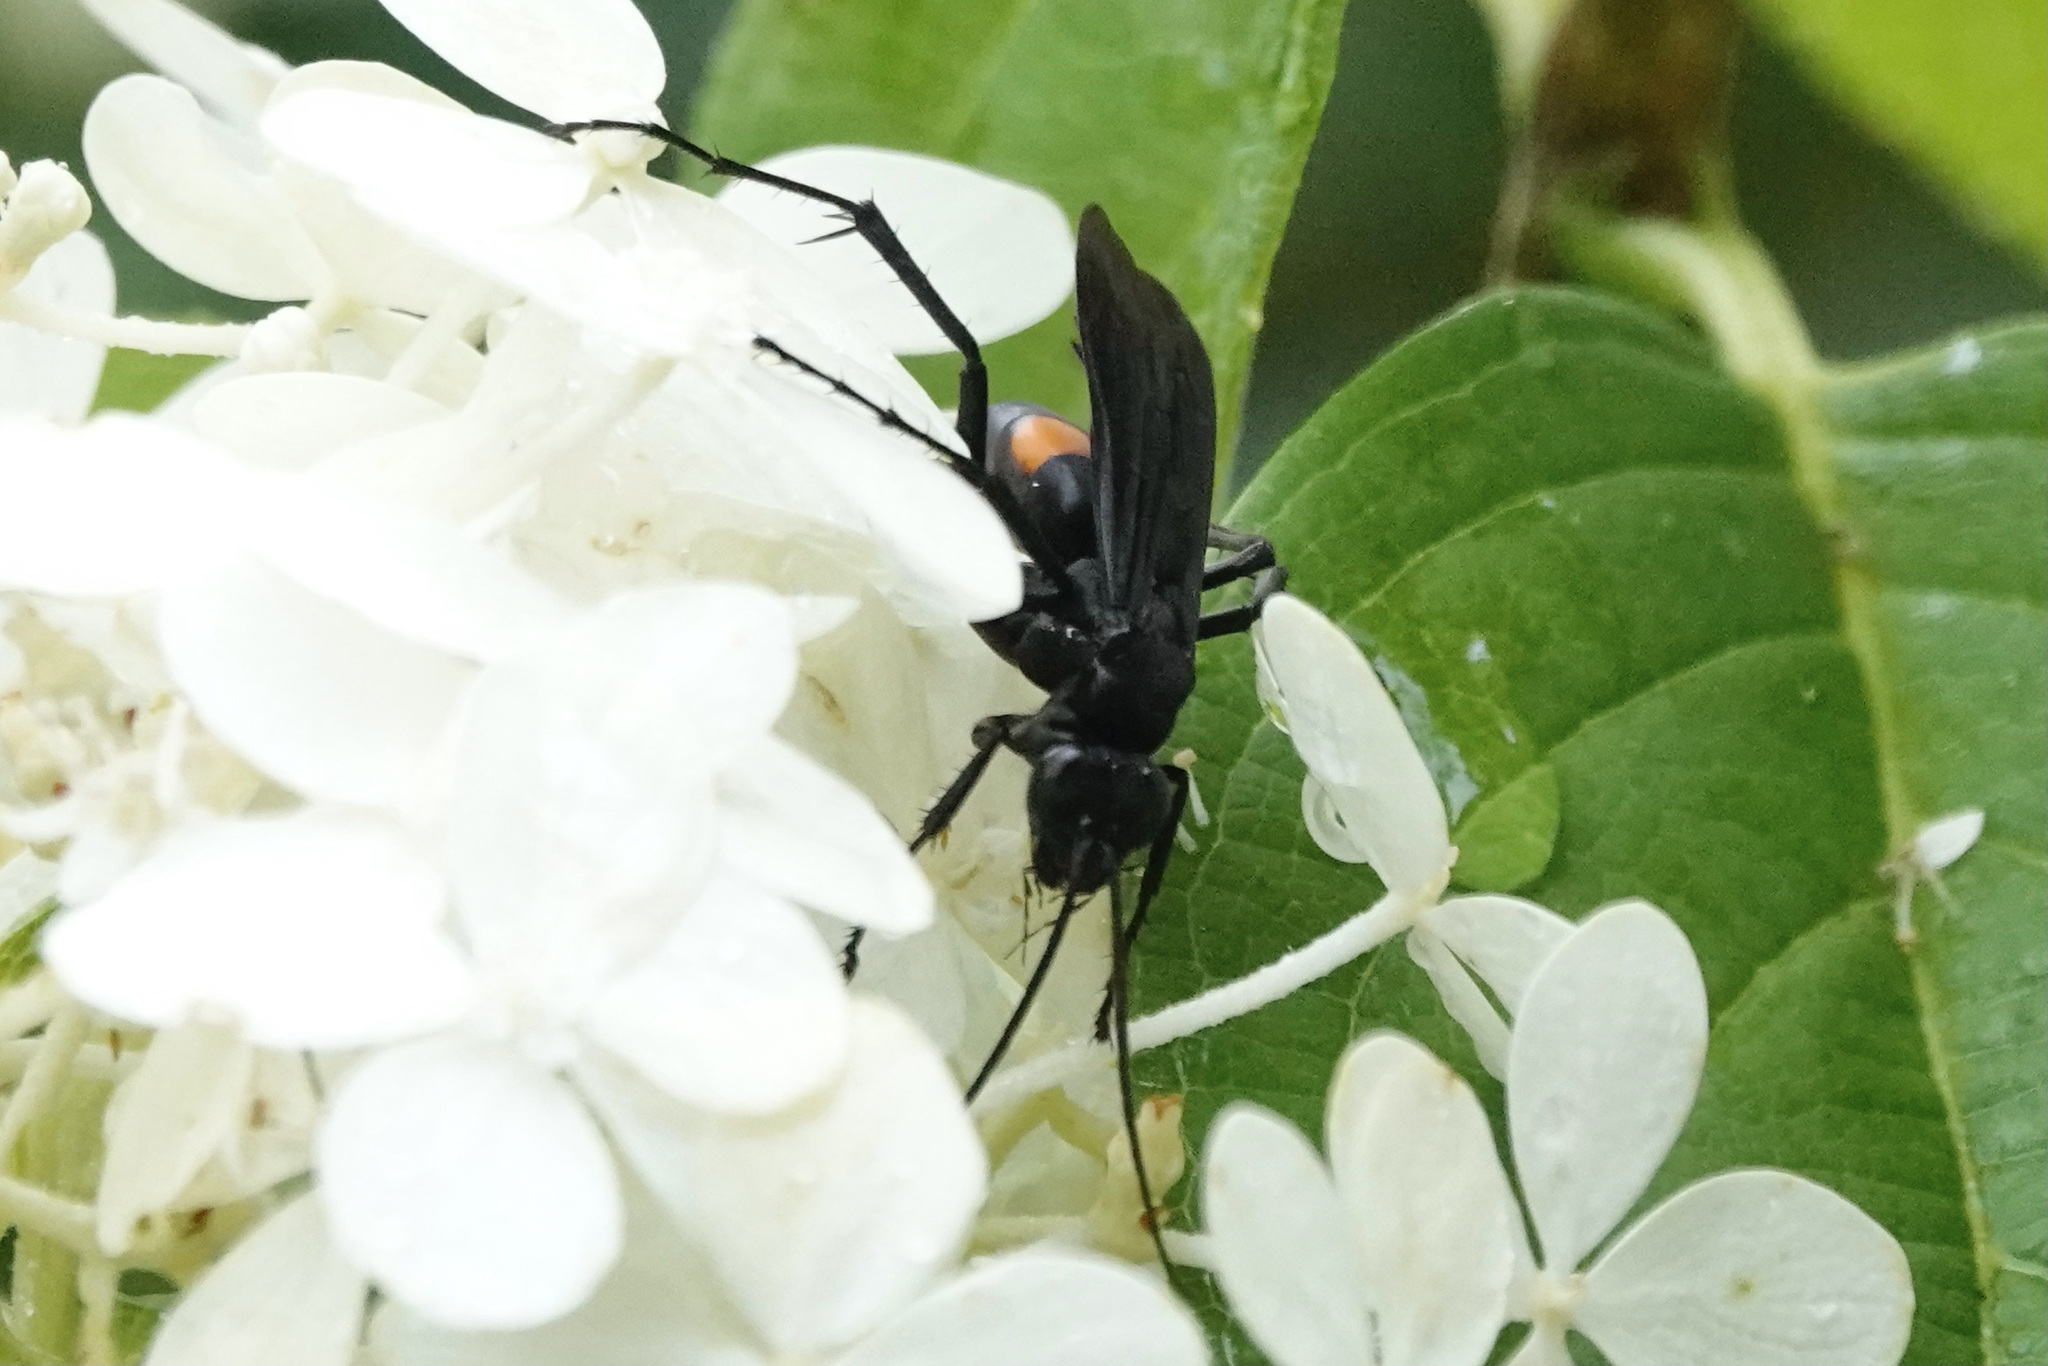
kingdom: Animalia
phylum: Arthropoda
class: Insecta
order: Hymenoptera
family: Pompilidae
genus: Anoplius
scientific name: Anoplius atrox
